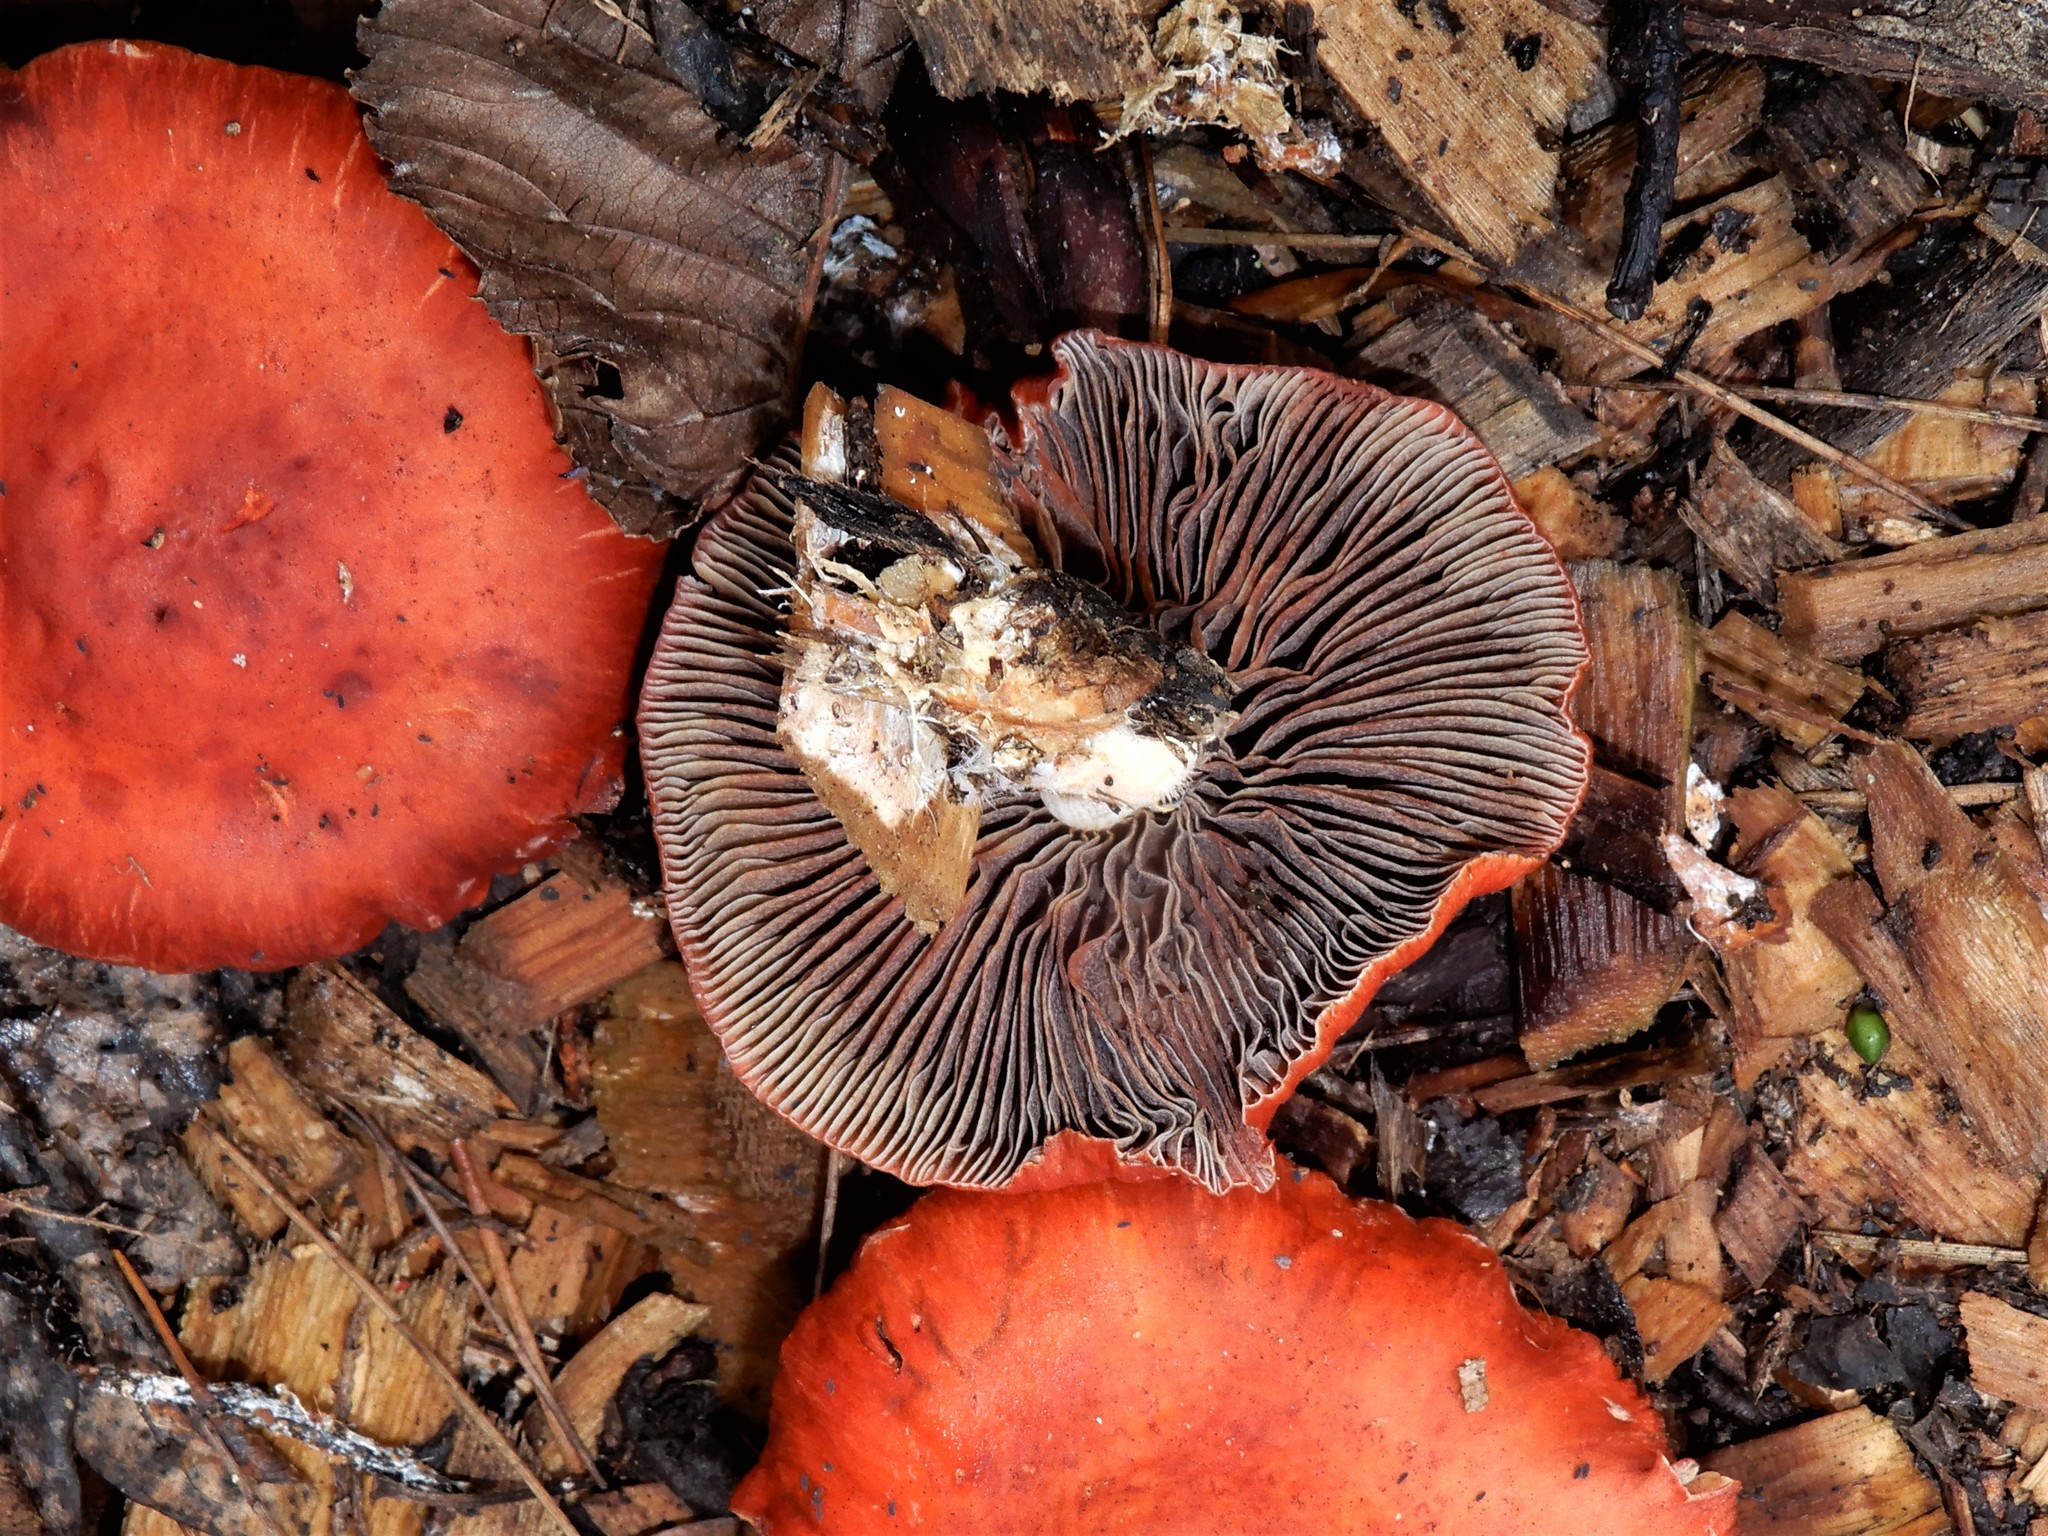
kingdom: Fungi
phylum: Basidiomycota
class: Agaricomycetes
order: Agaricales
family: Strophariaceae
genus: Leratiomyces
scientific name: Leratiomyces ceres
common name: Redlead roundhead
